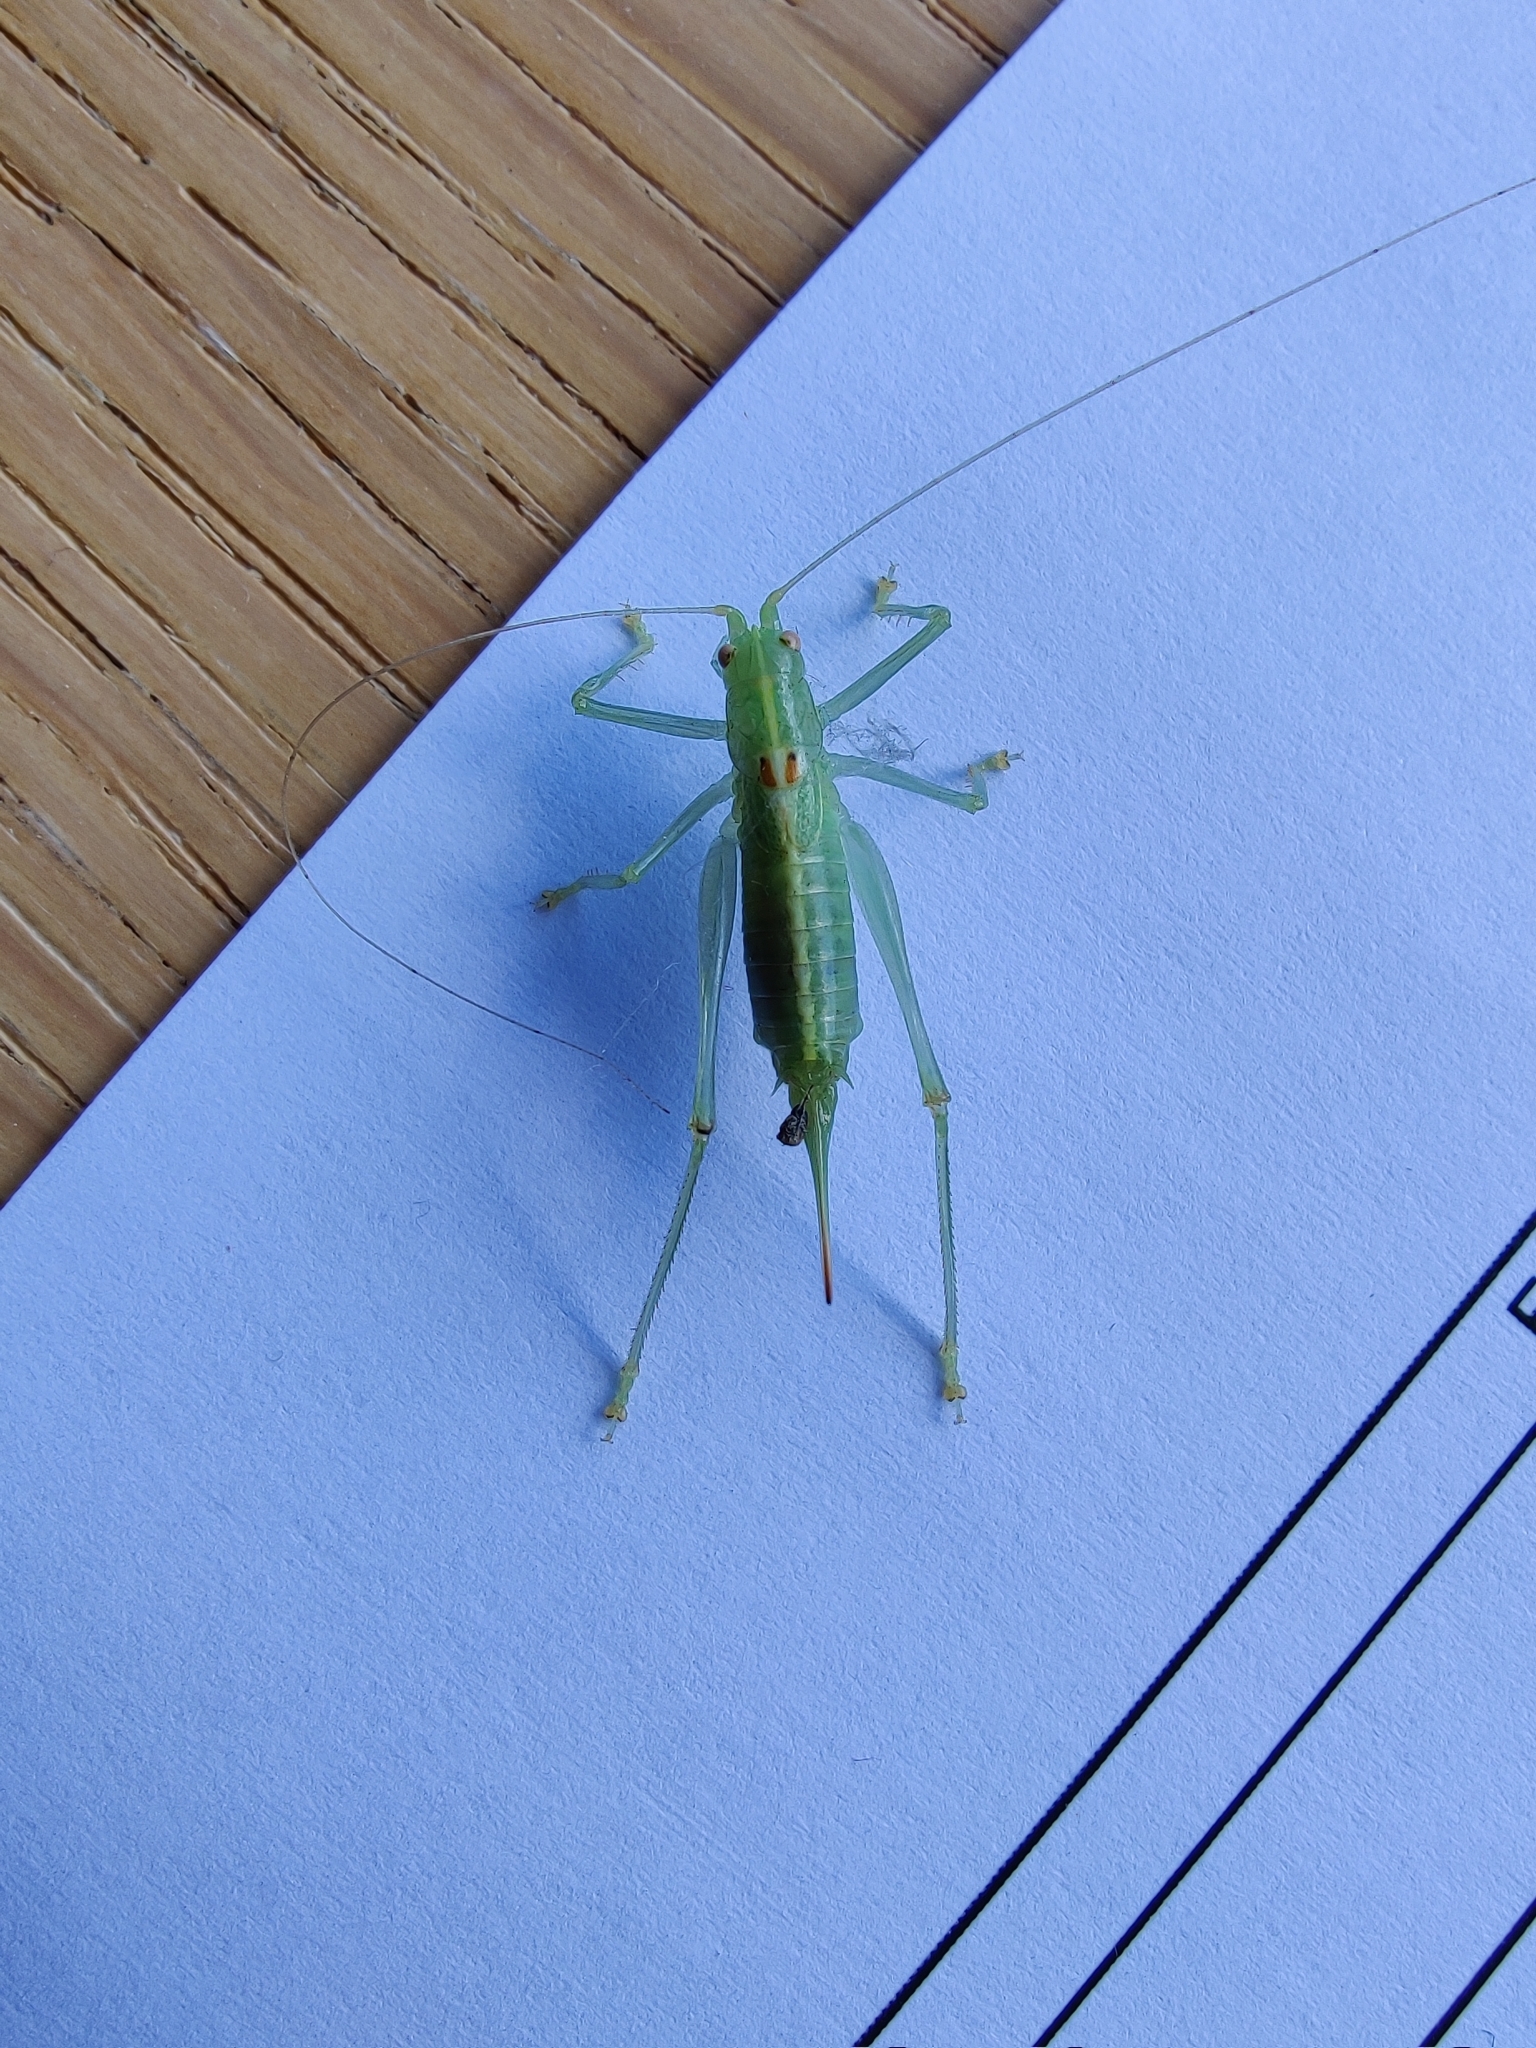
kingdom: Animalia
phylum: Arthropoda
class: Insecta
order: Orthoptera
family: Tettigoniidae
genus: Meconema
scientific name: Meconema meridionale
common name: Southern oak bush-cricket
